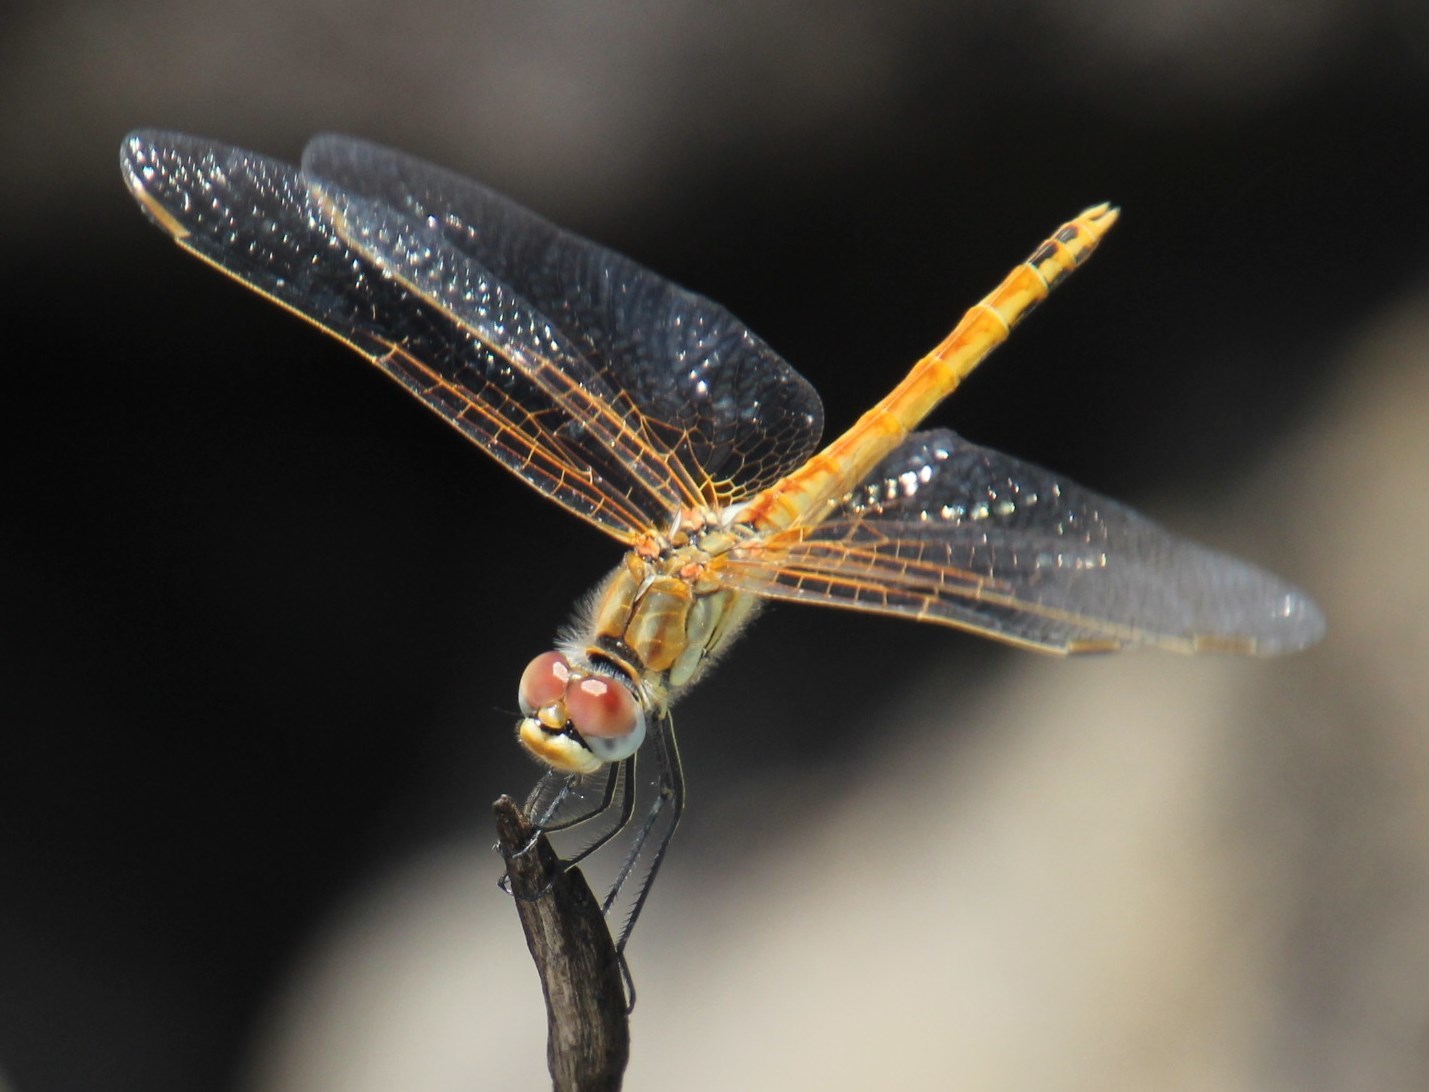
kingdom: Animalia
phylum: Arthropoda
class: Insecta
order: Odonata
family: Libellulidae
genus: Sympetrum
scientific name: Sympetrum fonscolombii
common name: Red-veined darter
